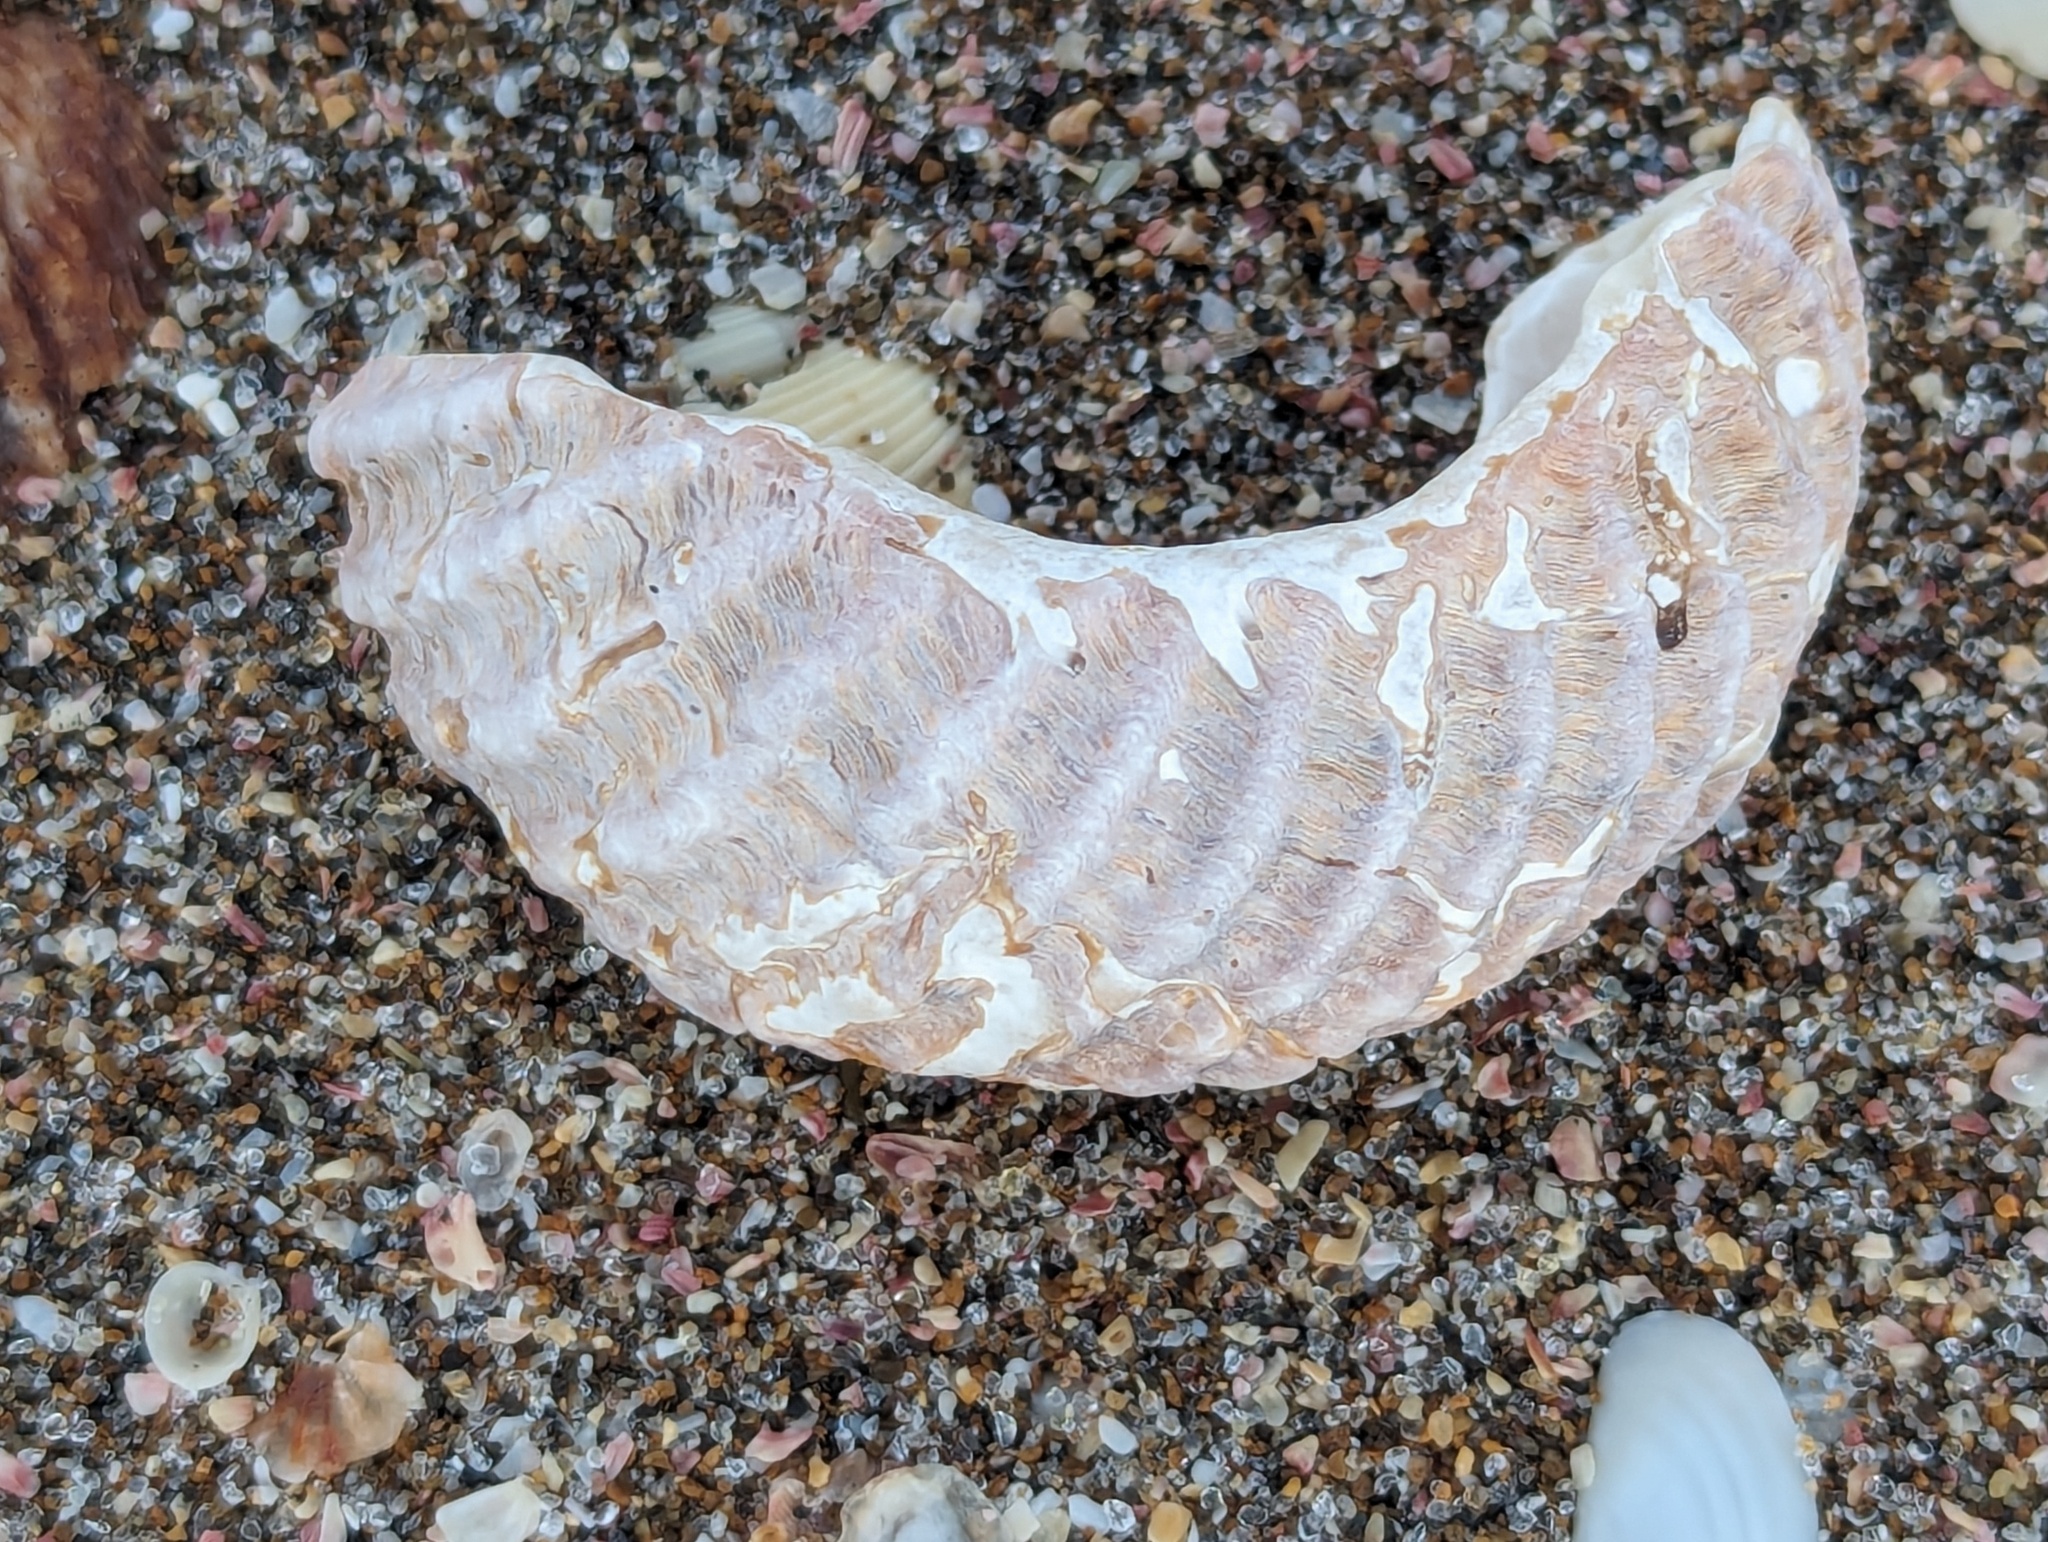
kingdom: Animalia
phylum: Mollusca
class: Gastropoda
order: Trochida
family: Turbinidae
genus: Cookia
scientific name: Cookia sulcata
